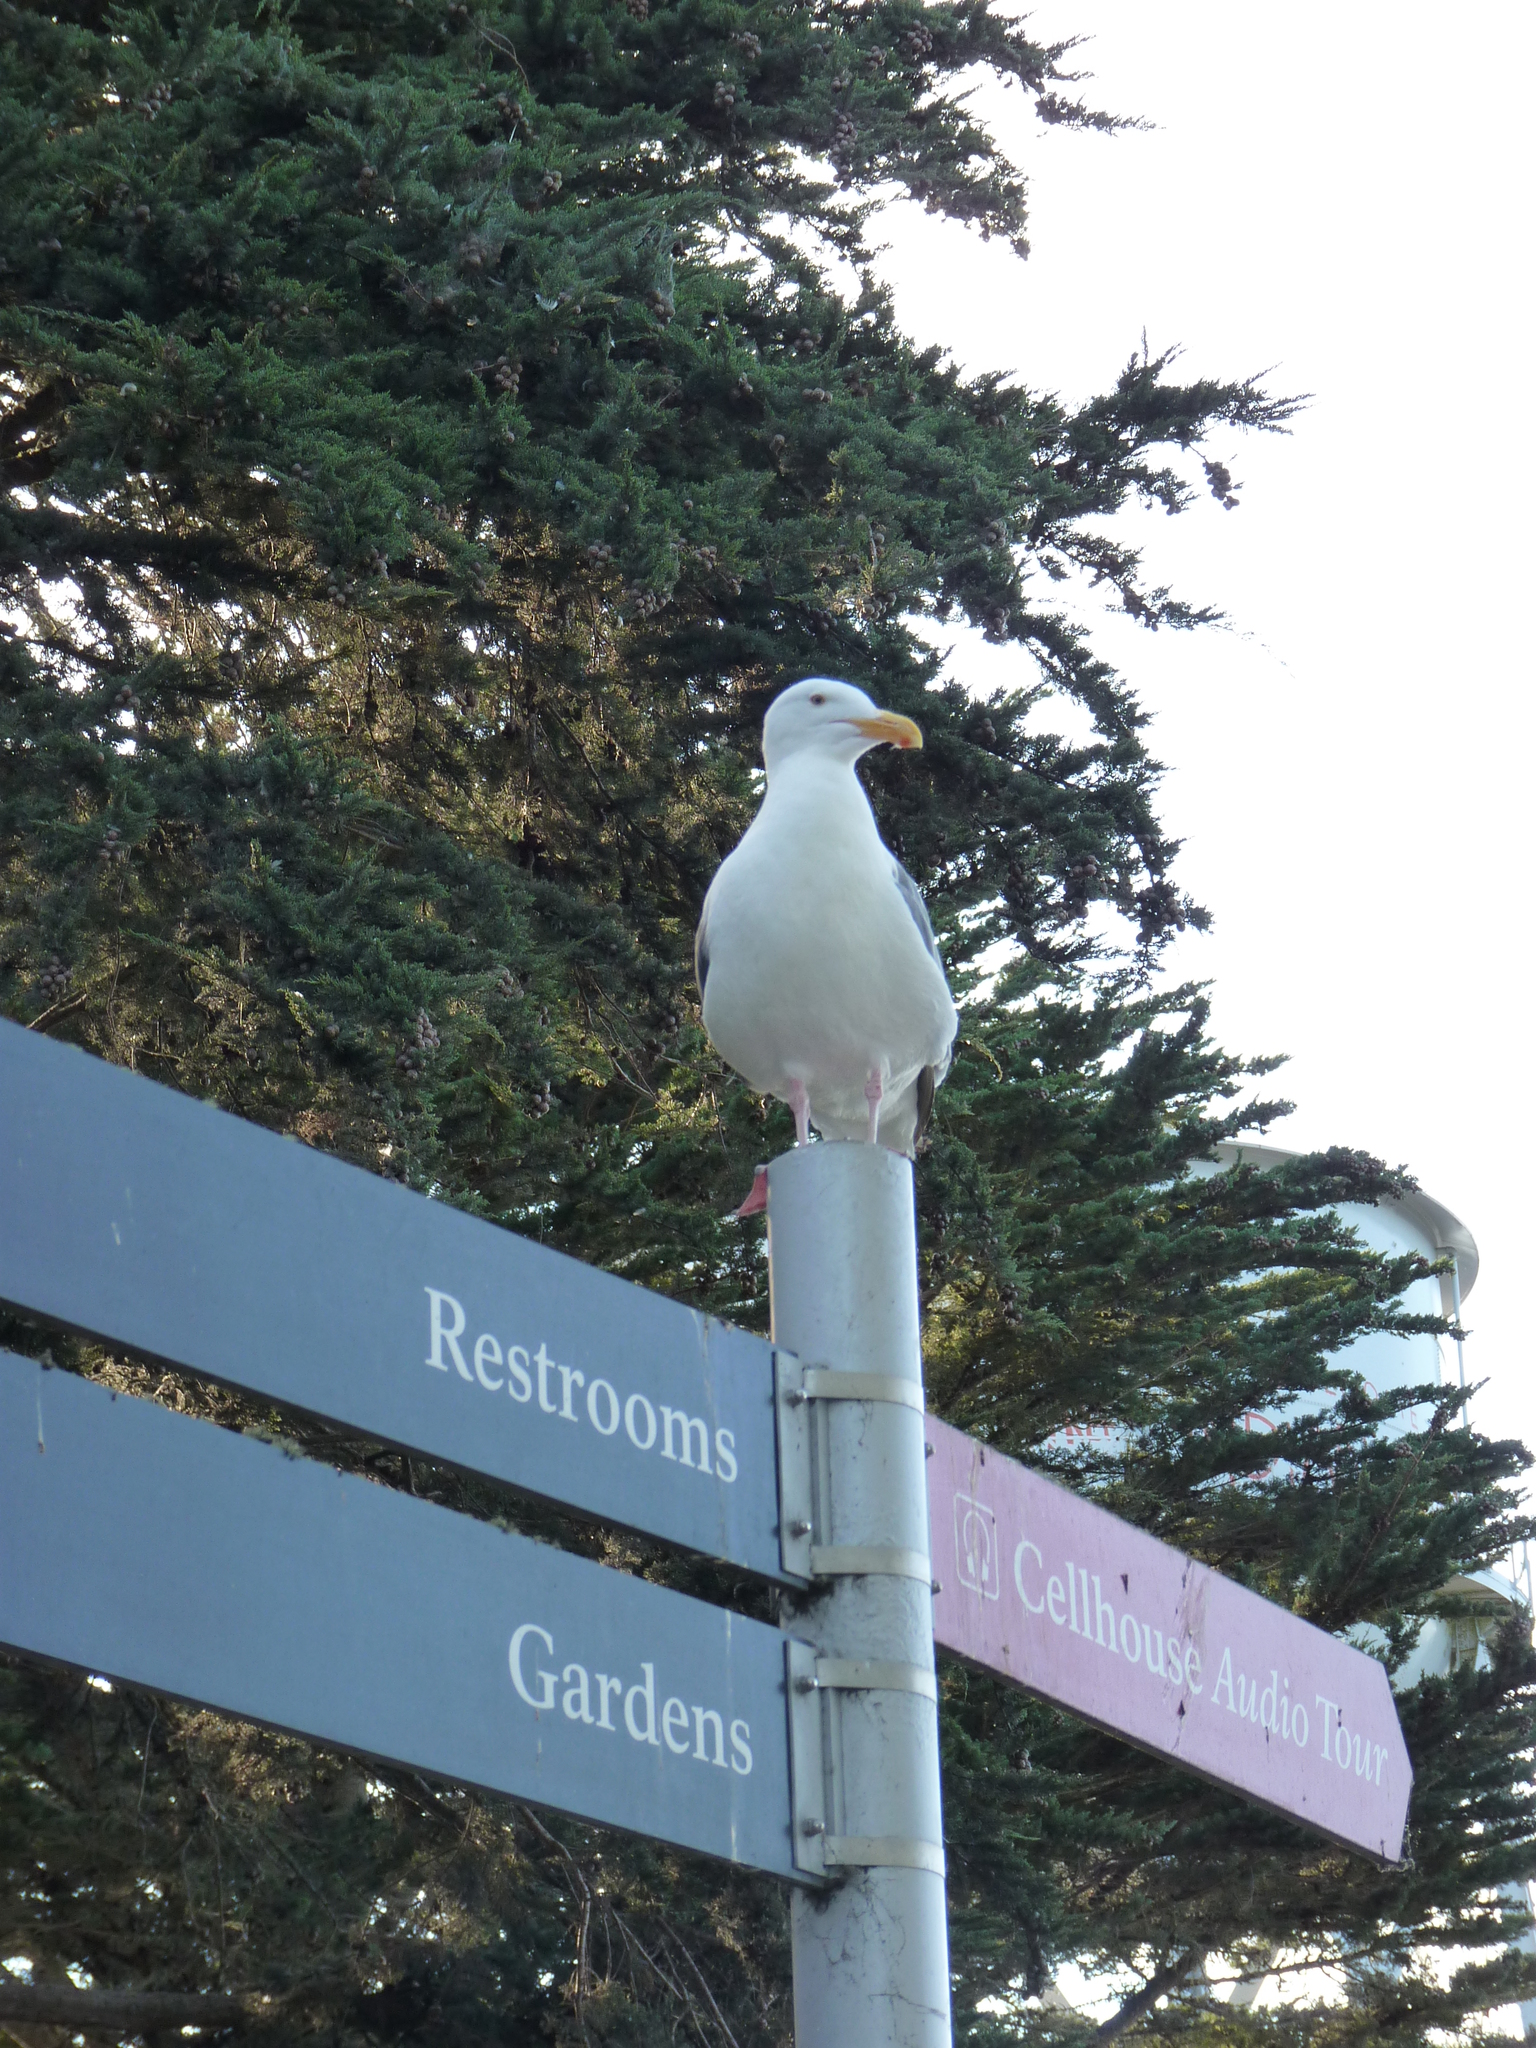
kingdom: Animalia
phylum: Chordata
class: Aves
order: Charadriiformes
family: Laridae
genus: Larus
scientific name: Larus occidentalis
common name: Western gull
